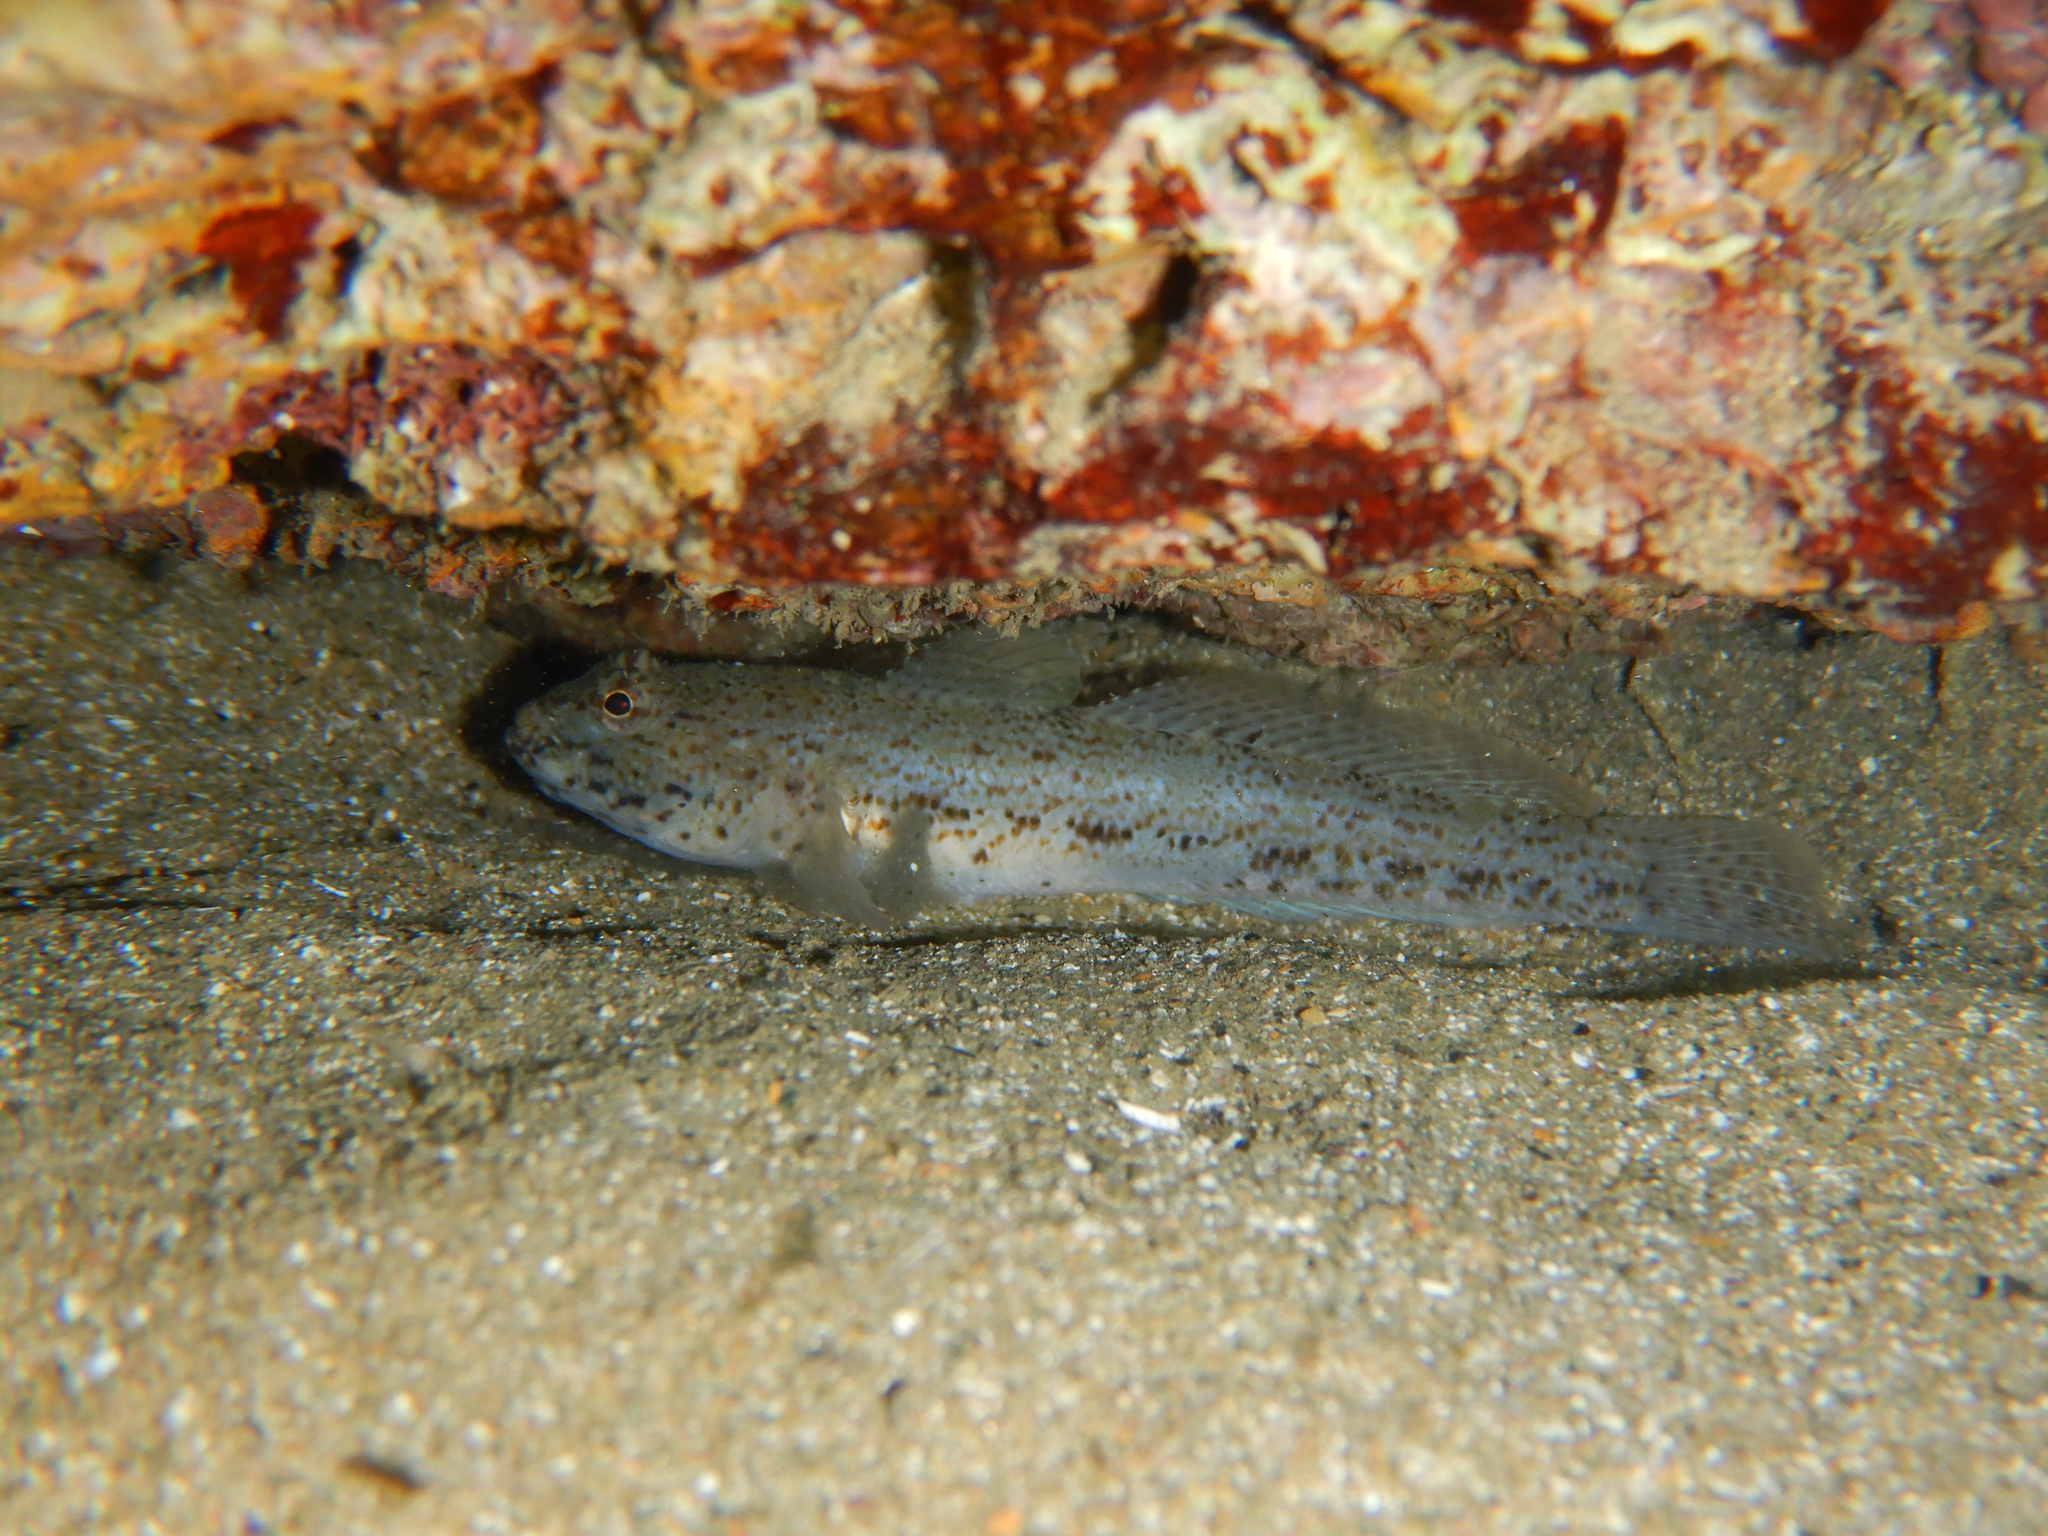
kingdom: Animalia
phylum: Chordata
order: Perciformes
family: Gobiidae
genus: Gobius
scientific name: Gobius incognitus
